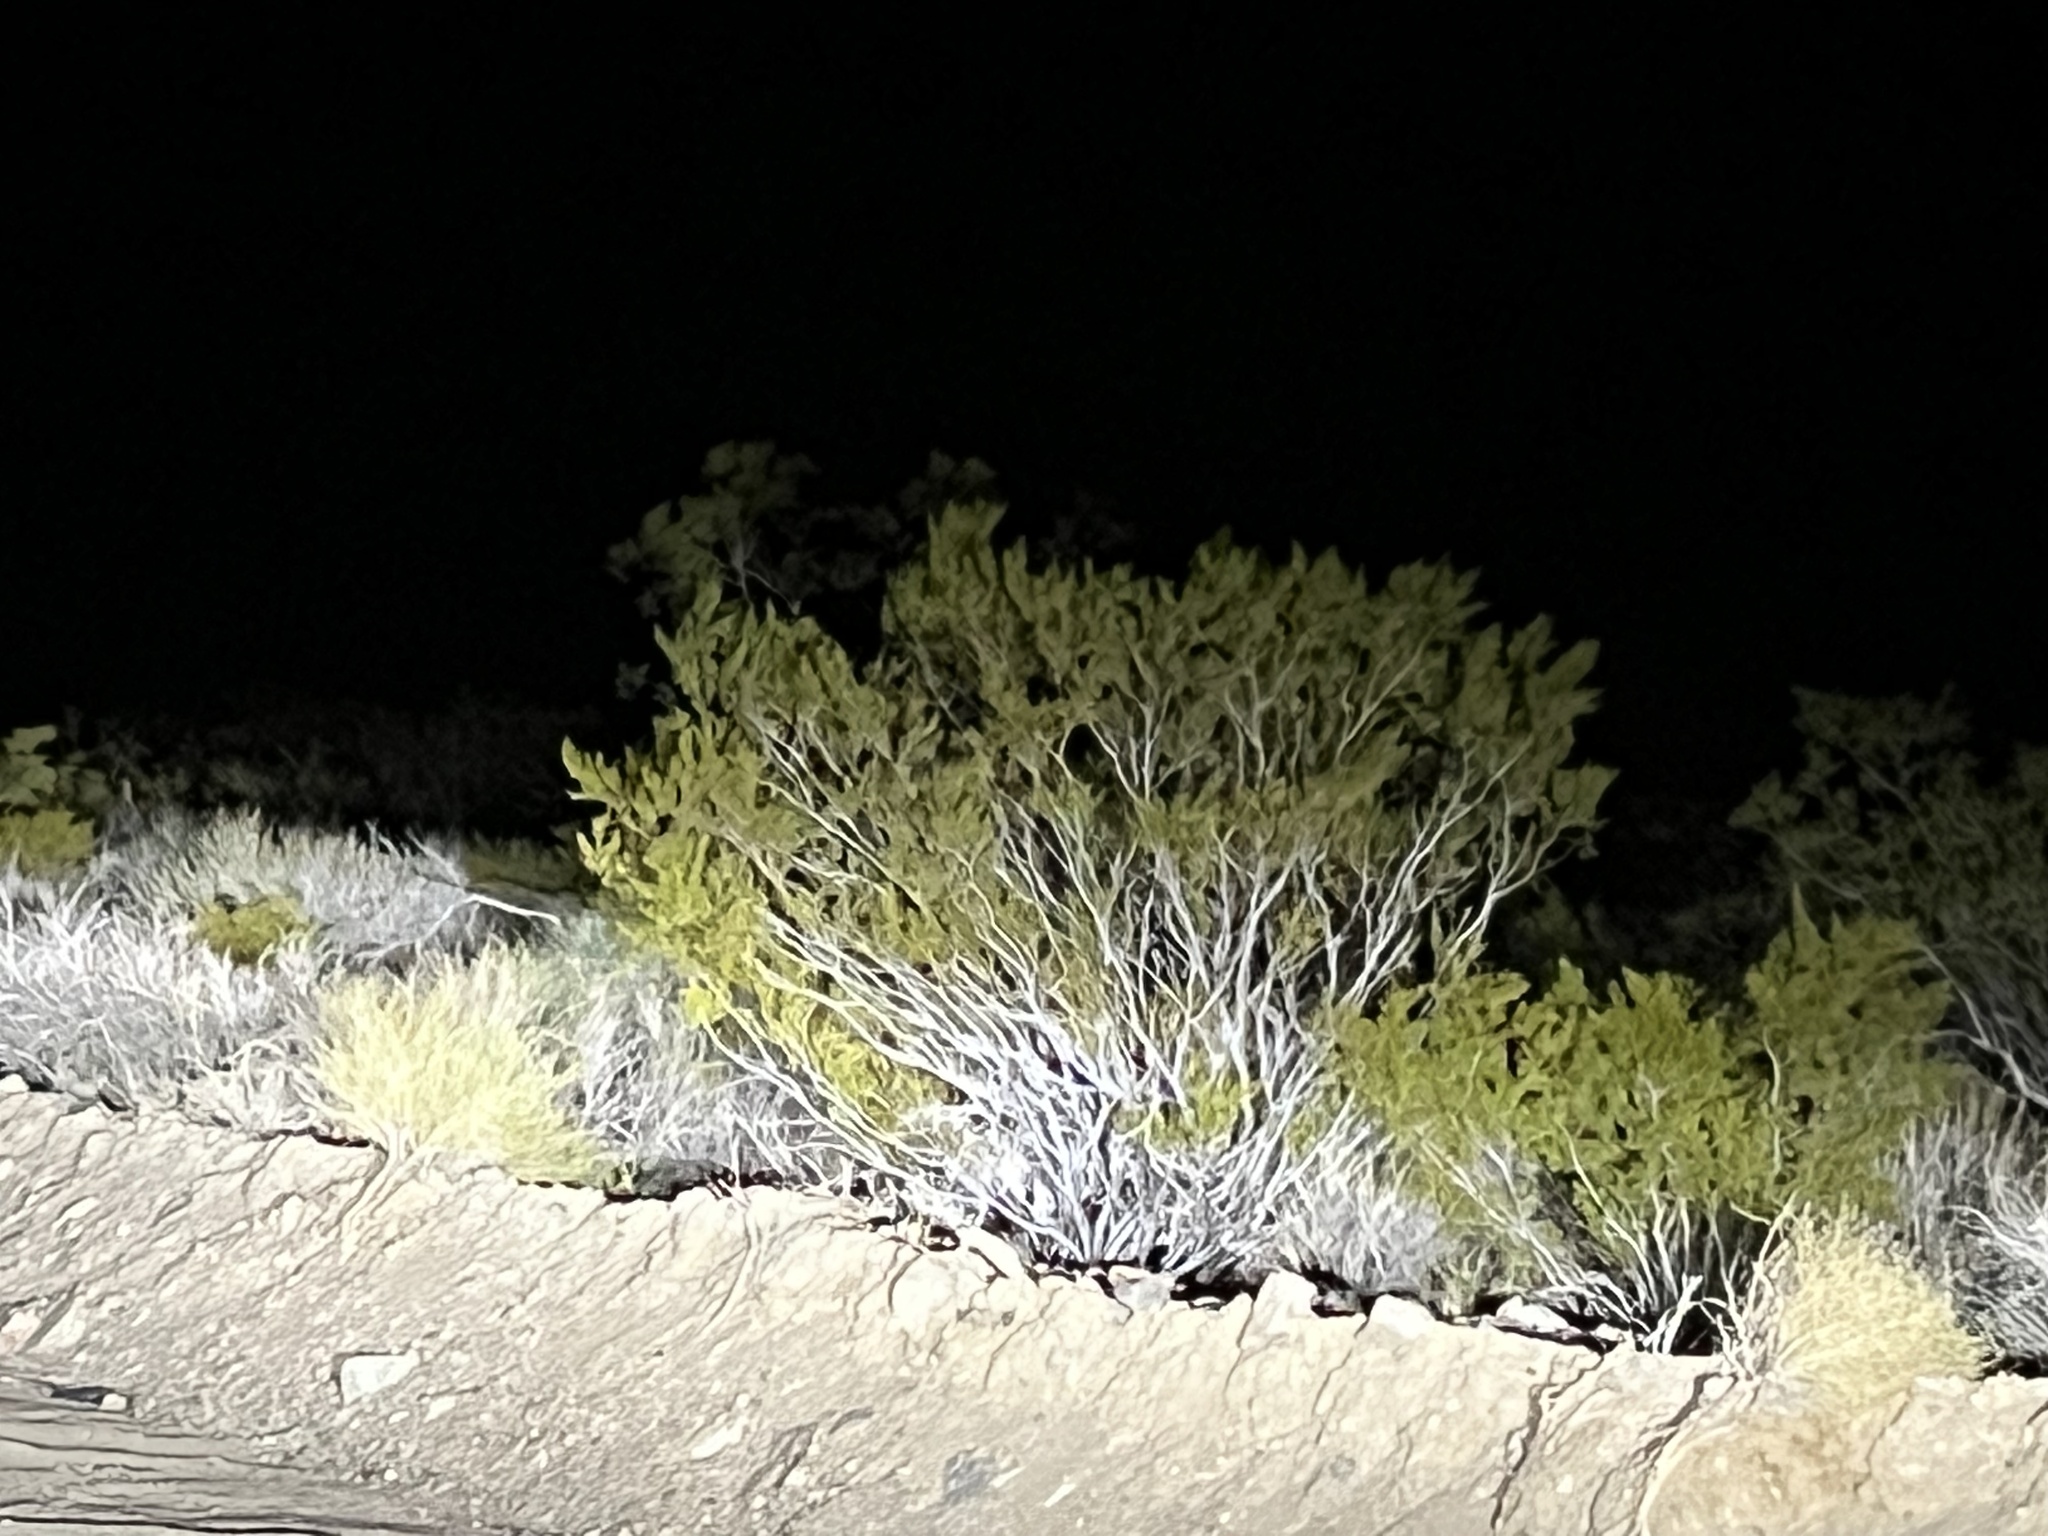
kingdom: Plantae
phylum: Tracheophyta
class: Magnoliopsida
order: Zygophyllales
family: Zygophyllaceae
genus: Larrea
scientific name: Larrea tridentata
